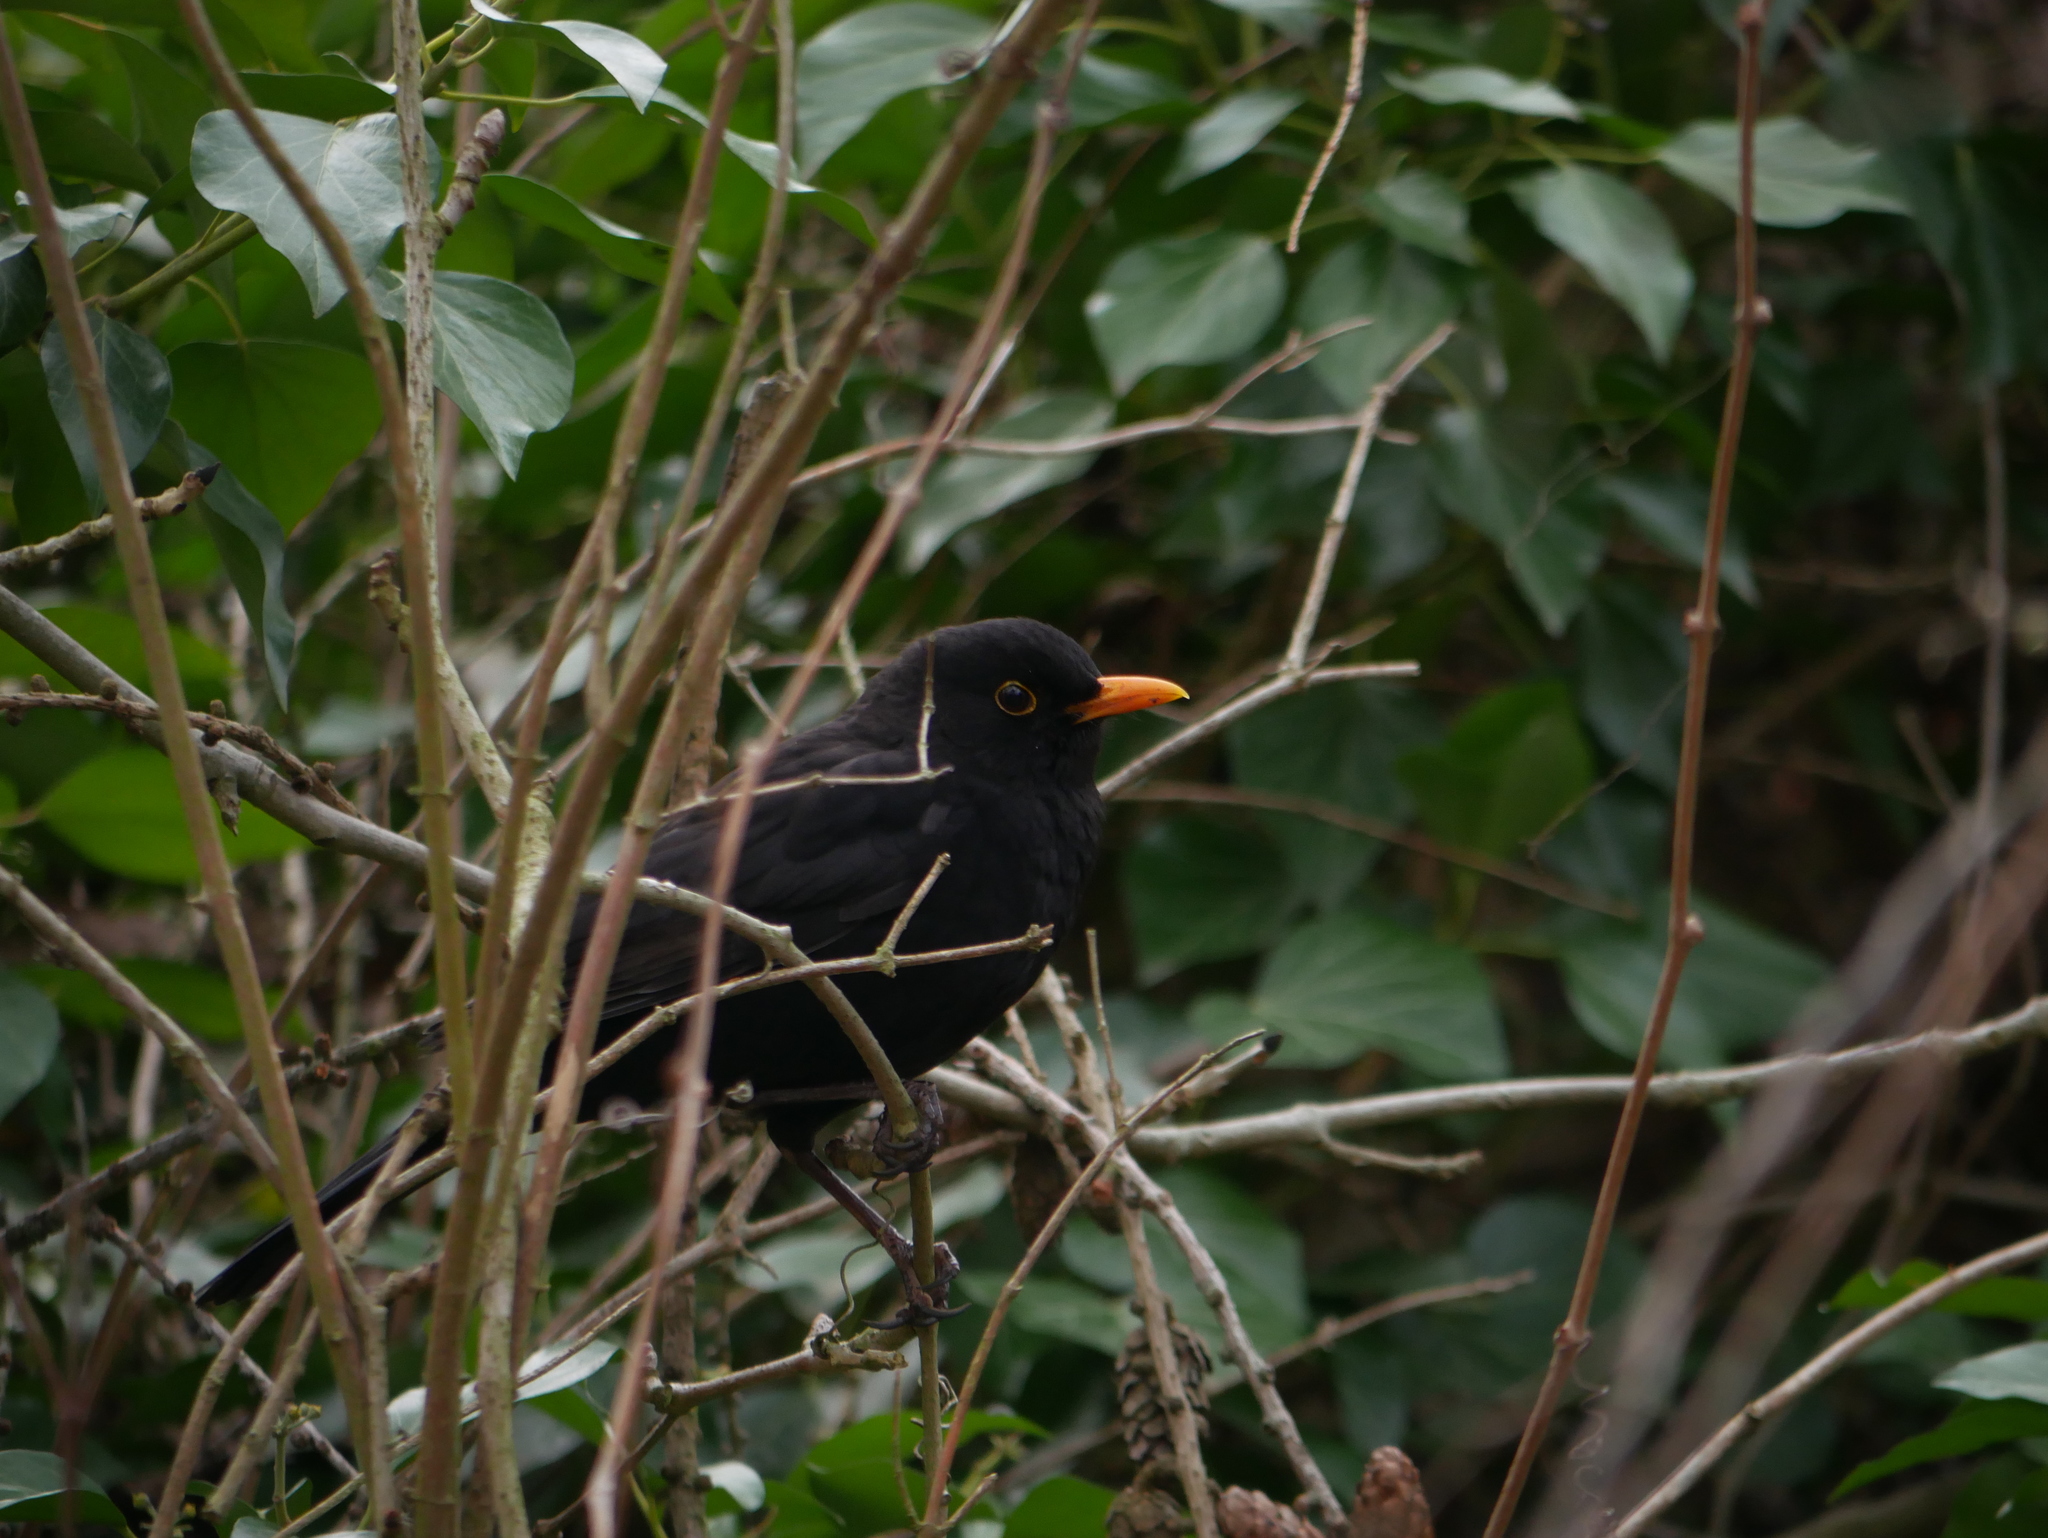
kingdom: Animalia
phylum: Chordata
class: Aves
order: Passeriformes
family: Turdidae
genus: Turdus
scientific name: Turdus merula
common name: Common blackbird
